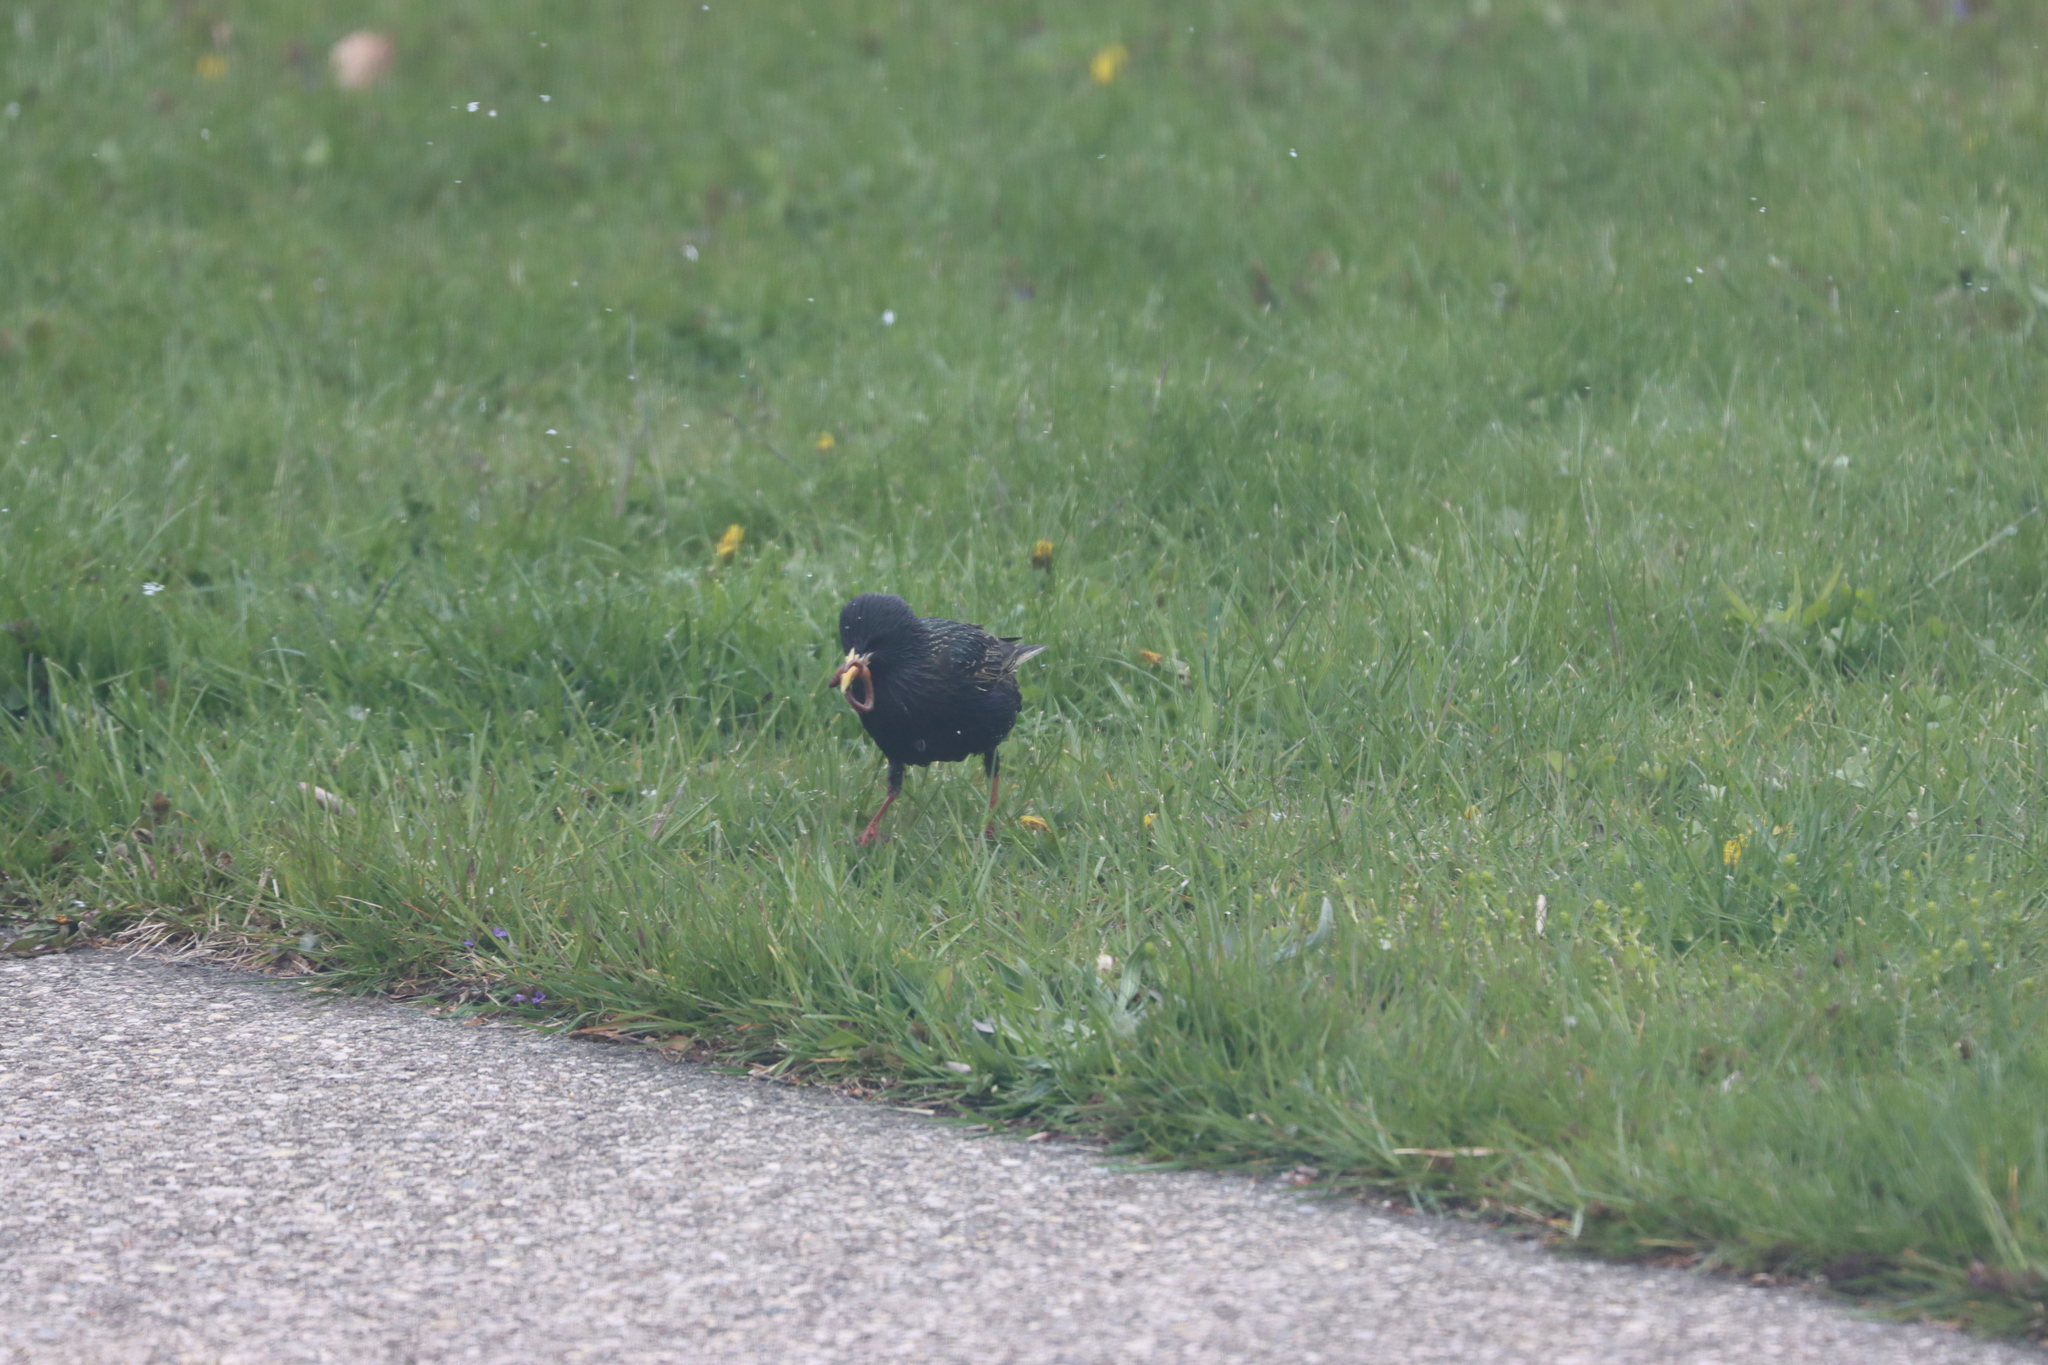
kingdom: Animalia
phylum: Chordata
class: Aves
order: Passeriformes
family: Sturnidae
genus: Sturnus
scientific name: Sturnus vulgaris
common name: Common starling
